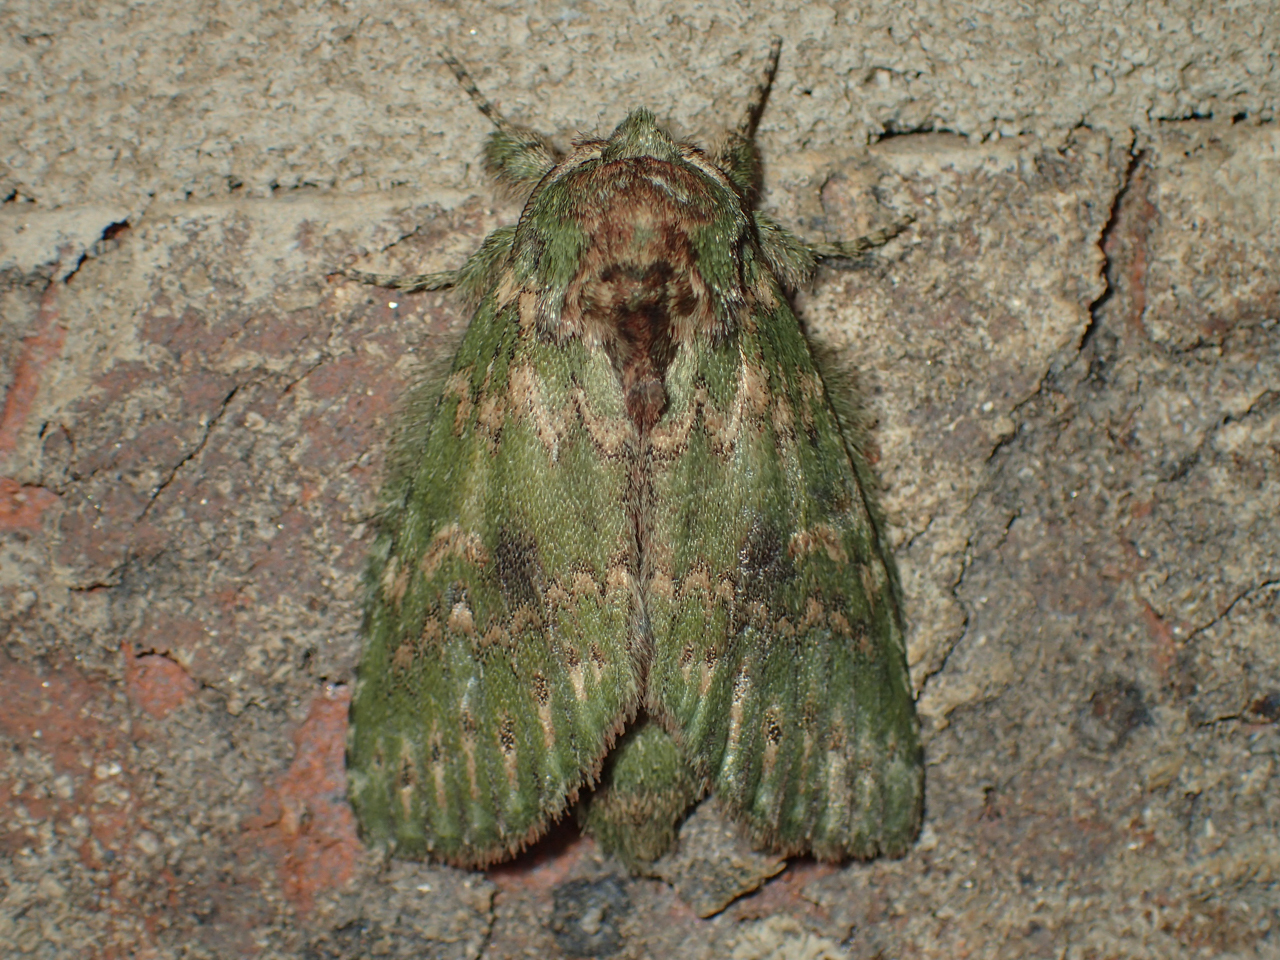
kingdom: Animalia
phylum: Arthropoda
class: Insecta
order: Lepidoptera
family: Notodontidae
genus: Disphragis
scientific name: Disphragis Cecrita biundata
